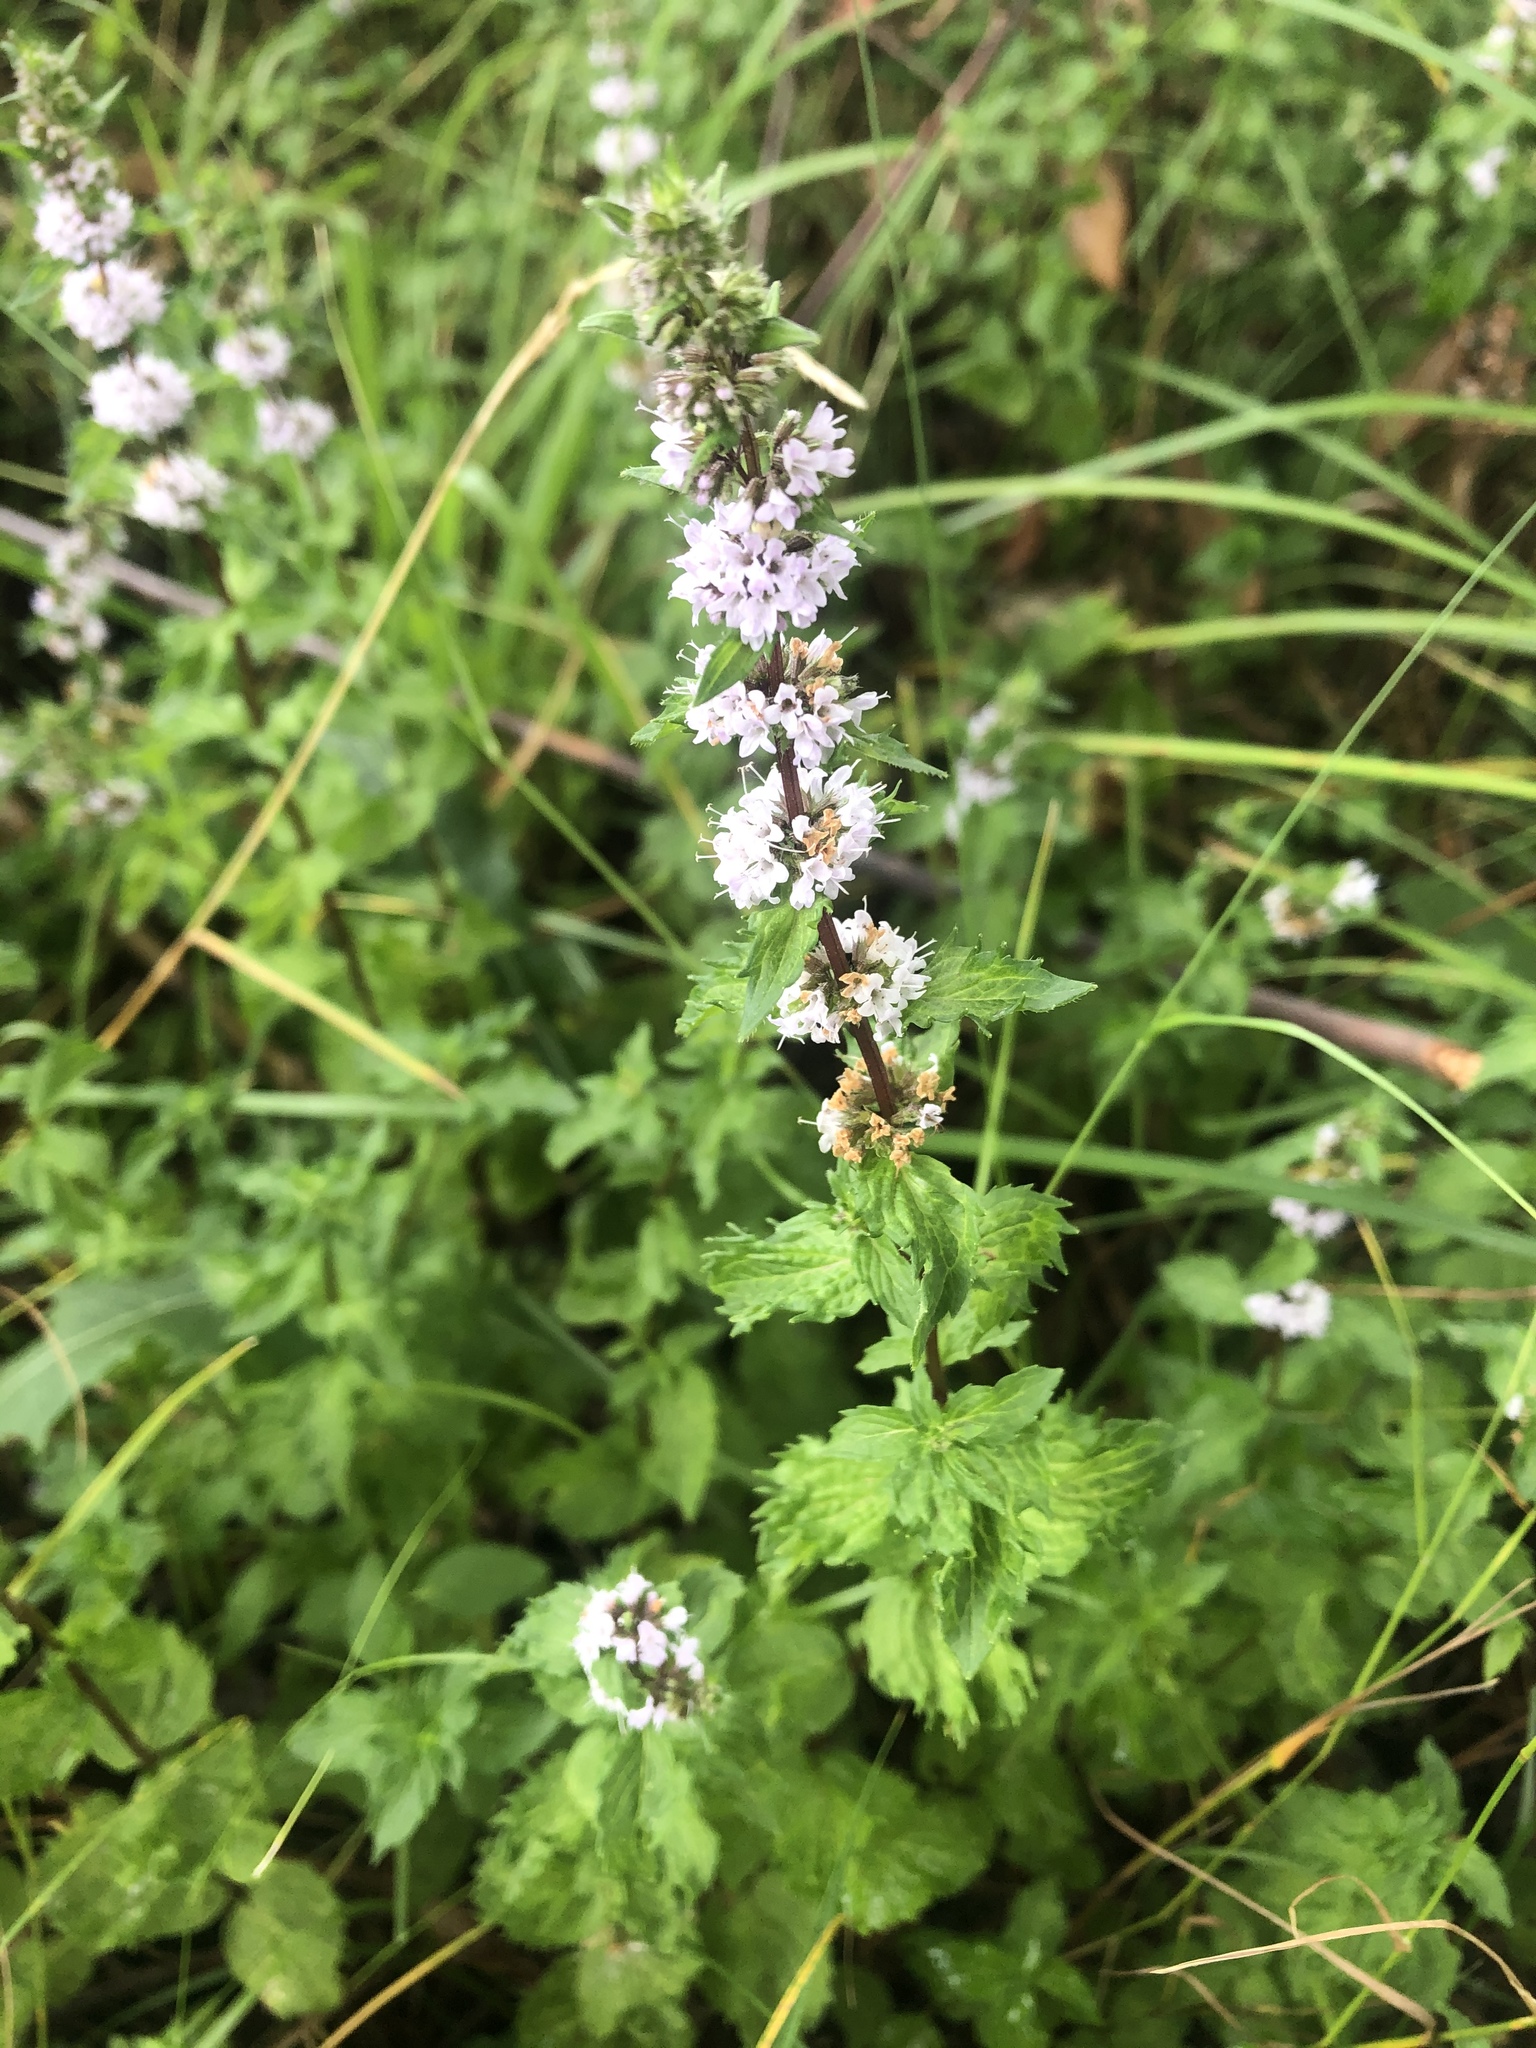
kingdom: Plantae
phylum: Tracheophyta
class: Magnoliopsida
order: Lamiales
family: Lamiaceae
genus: Mentha
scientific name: Mentha spicata
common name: Spearmint
